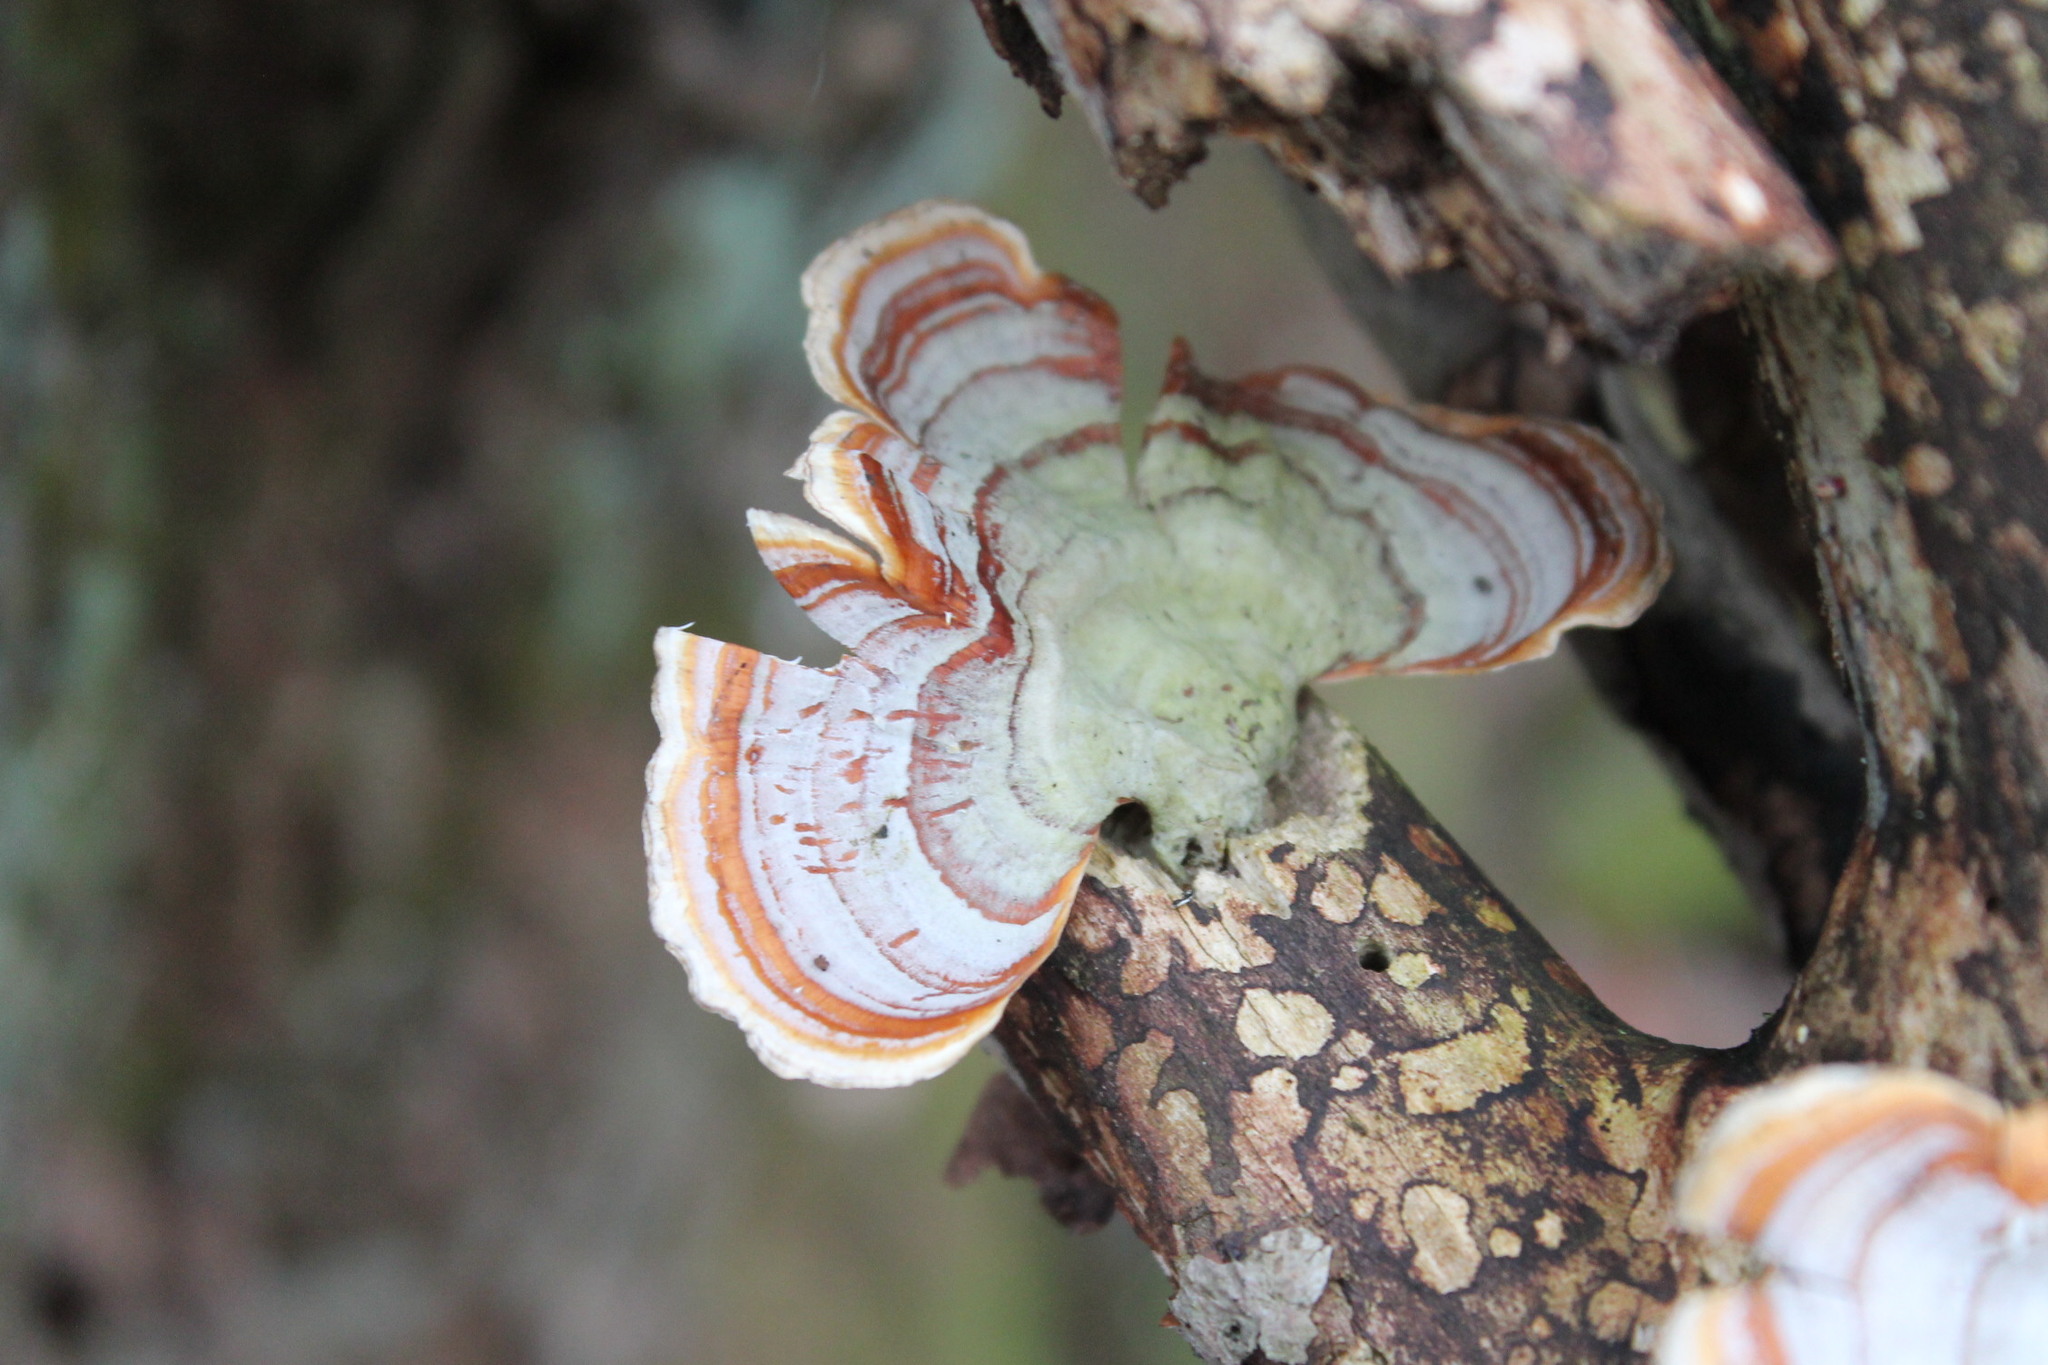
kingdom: Fungi
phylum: Basidiomycota
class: Agaricomycetes
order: Russulales
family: Stereaceae
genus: Stereum
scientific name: Stereum lobatum
